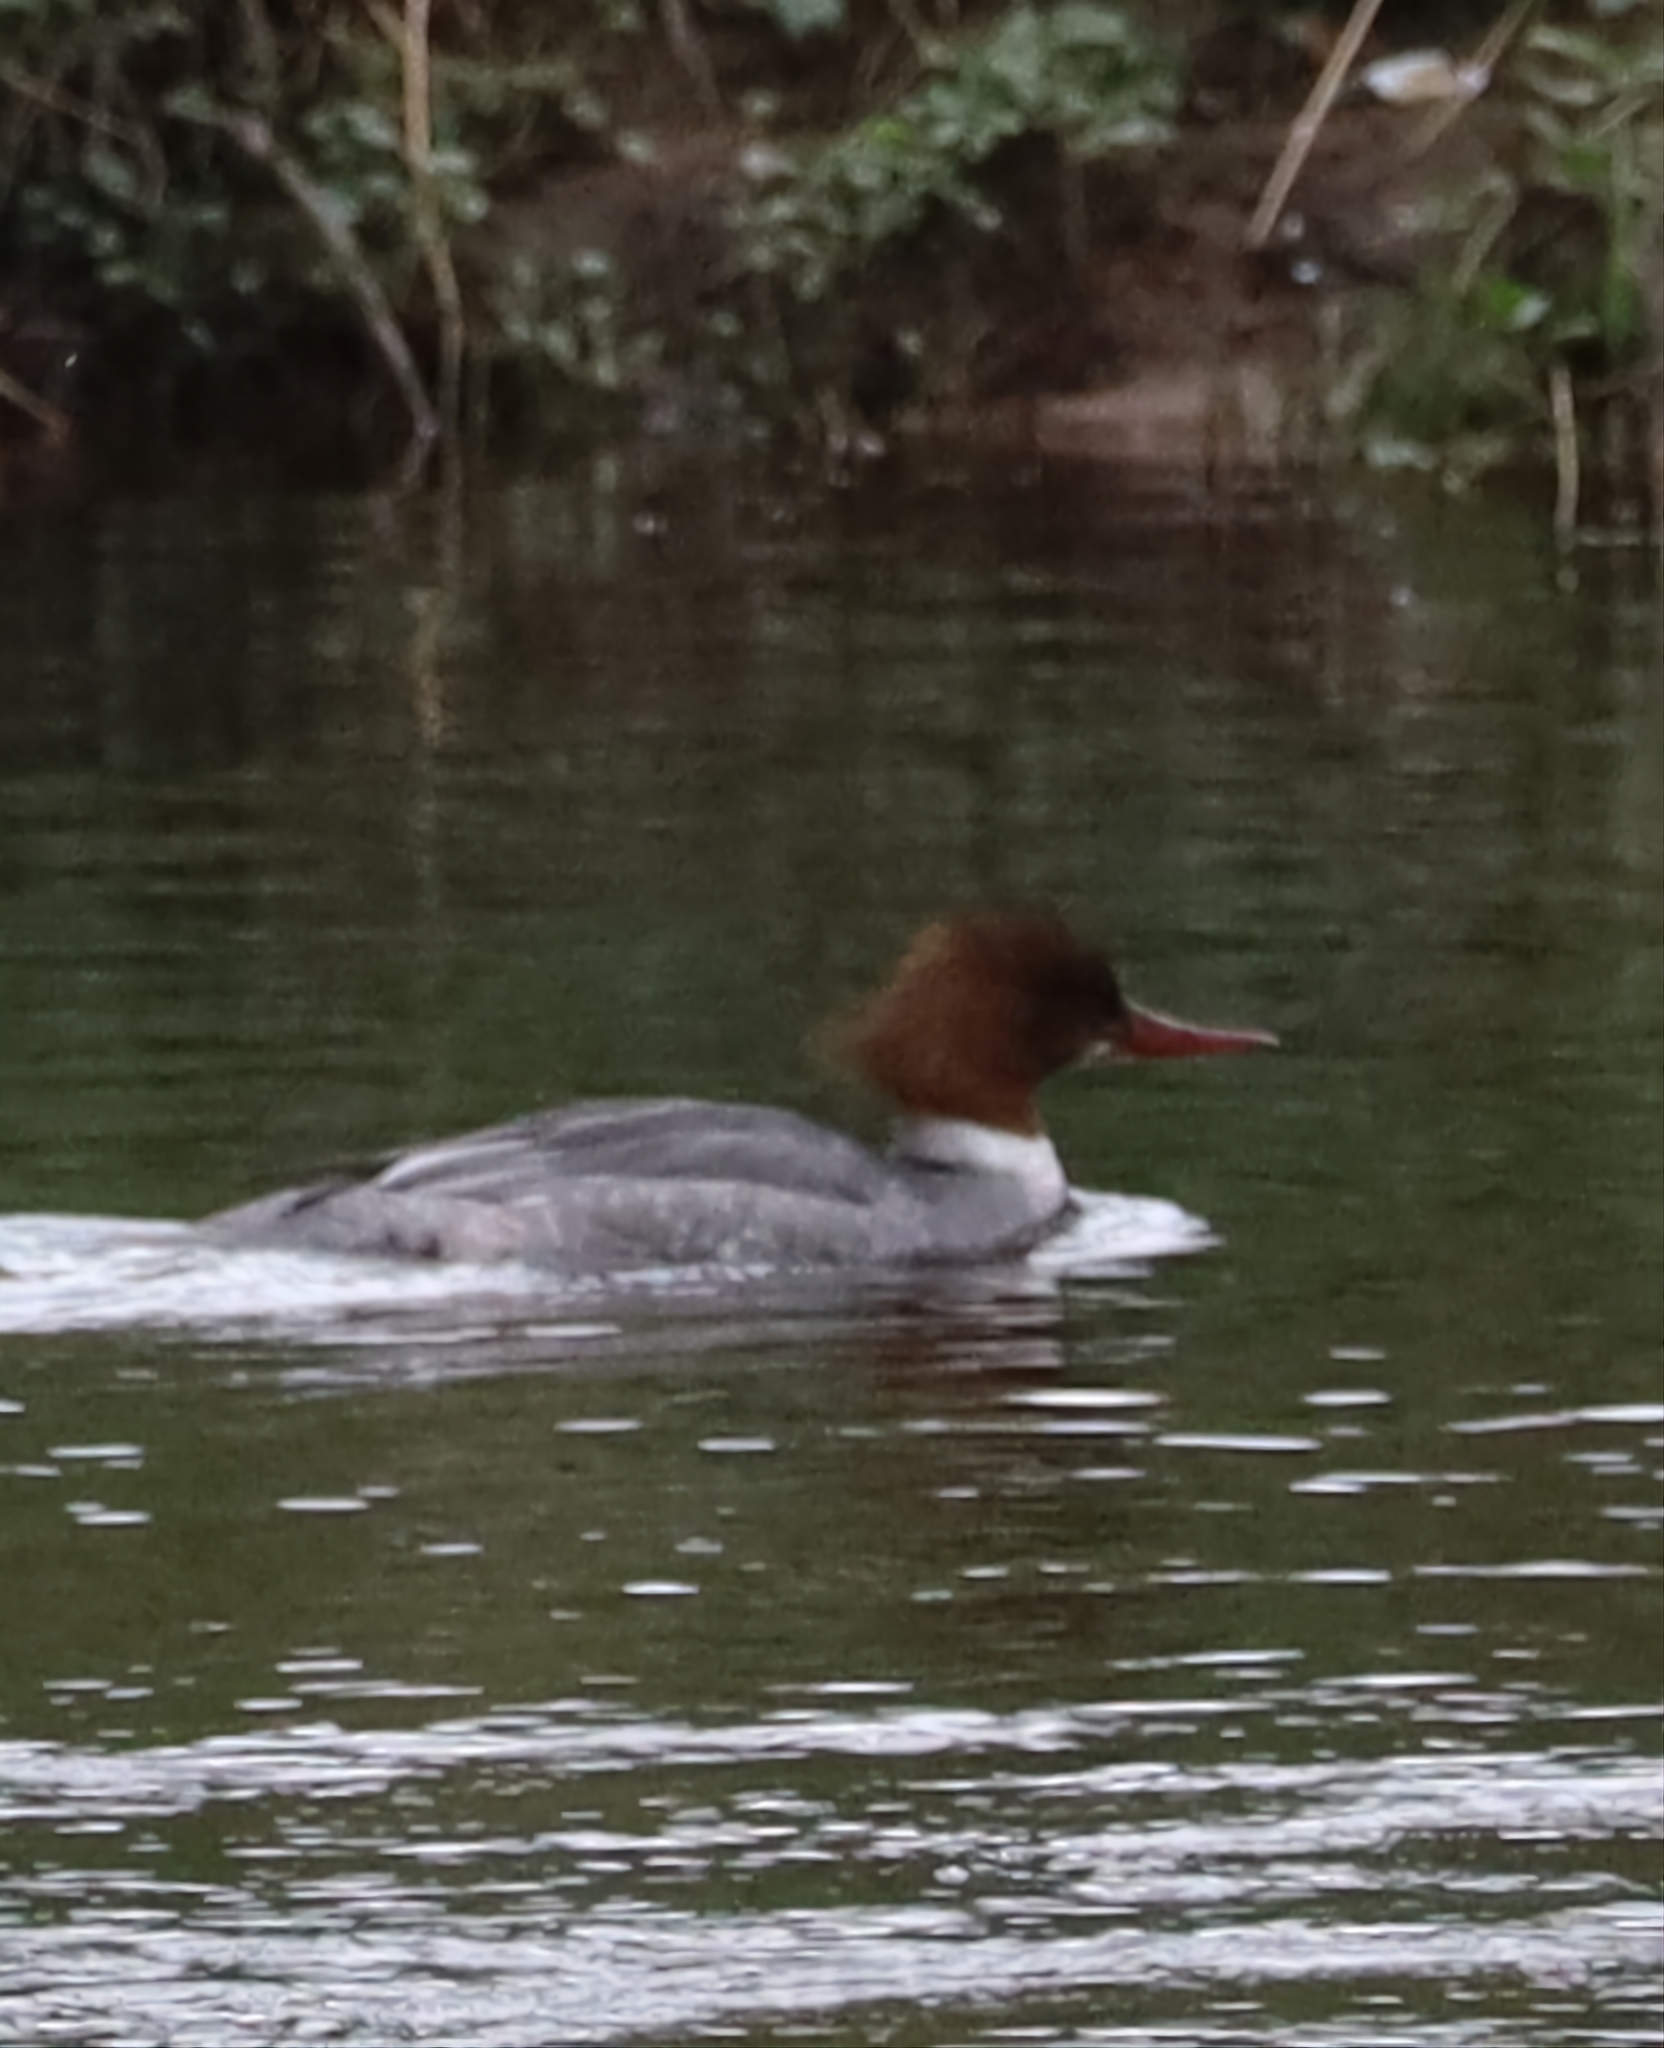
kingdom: Animalia
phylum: Chordata
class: Aves
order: Anseriformes
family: Anatidae
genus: Mergus
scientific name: Mergus merganser
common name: Common merganser
